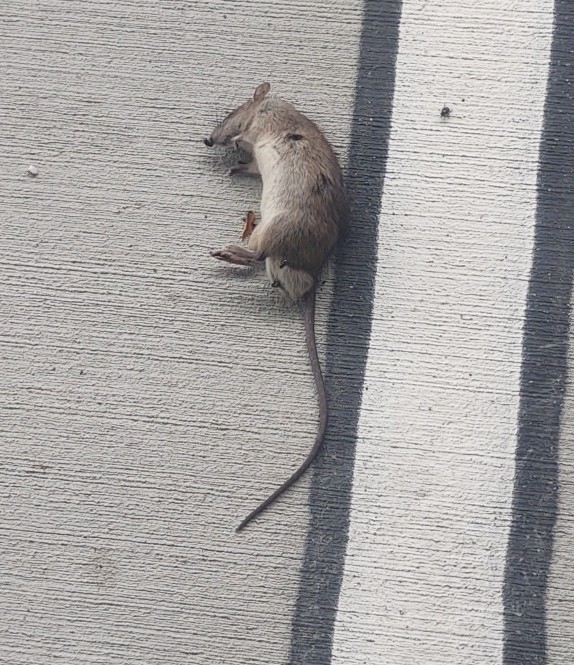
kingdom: Animalia
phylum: Chordata
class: Mammalia
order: Rodentia
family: Muridae
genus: Rattus
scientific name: Rattus rattus
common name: Black rat
